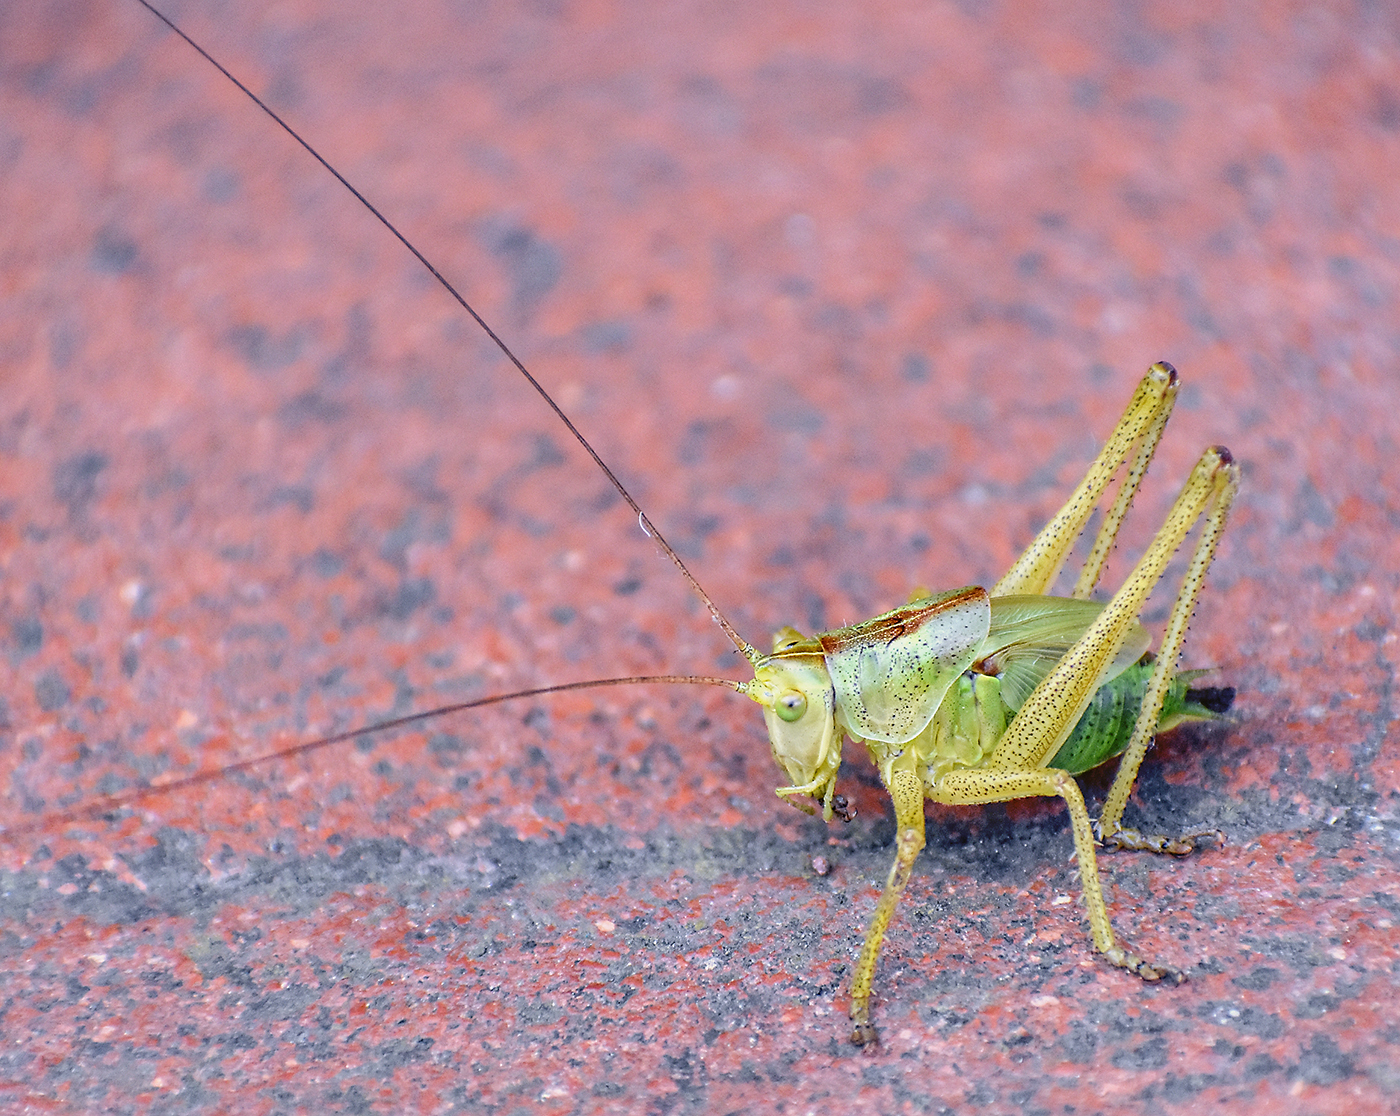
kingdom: Animalia
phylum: Arthropoda
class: Insecta
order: Orthoptera
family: Tettigoniidae
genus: Tettigonia
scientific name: Tettigonia viridissima
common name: Great green bush-cricket
